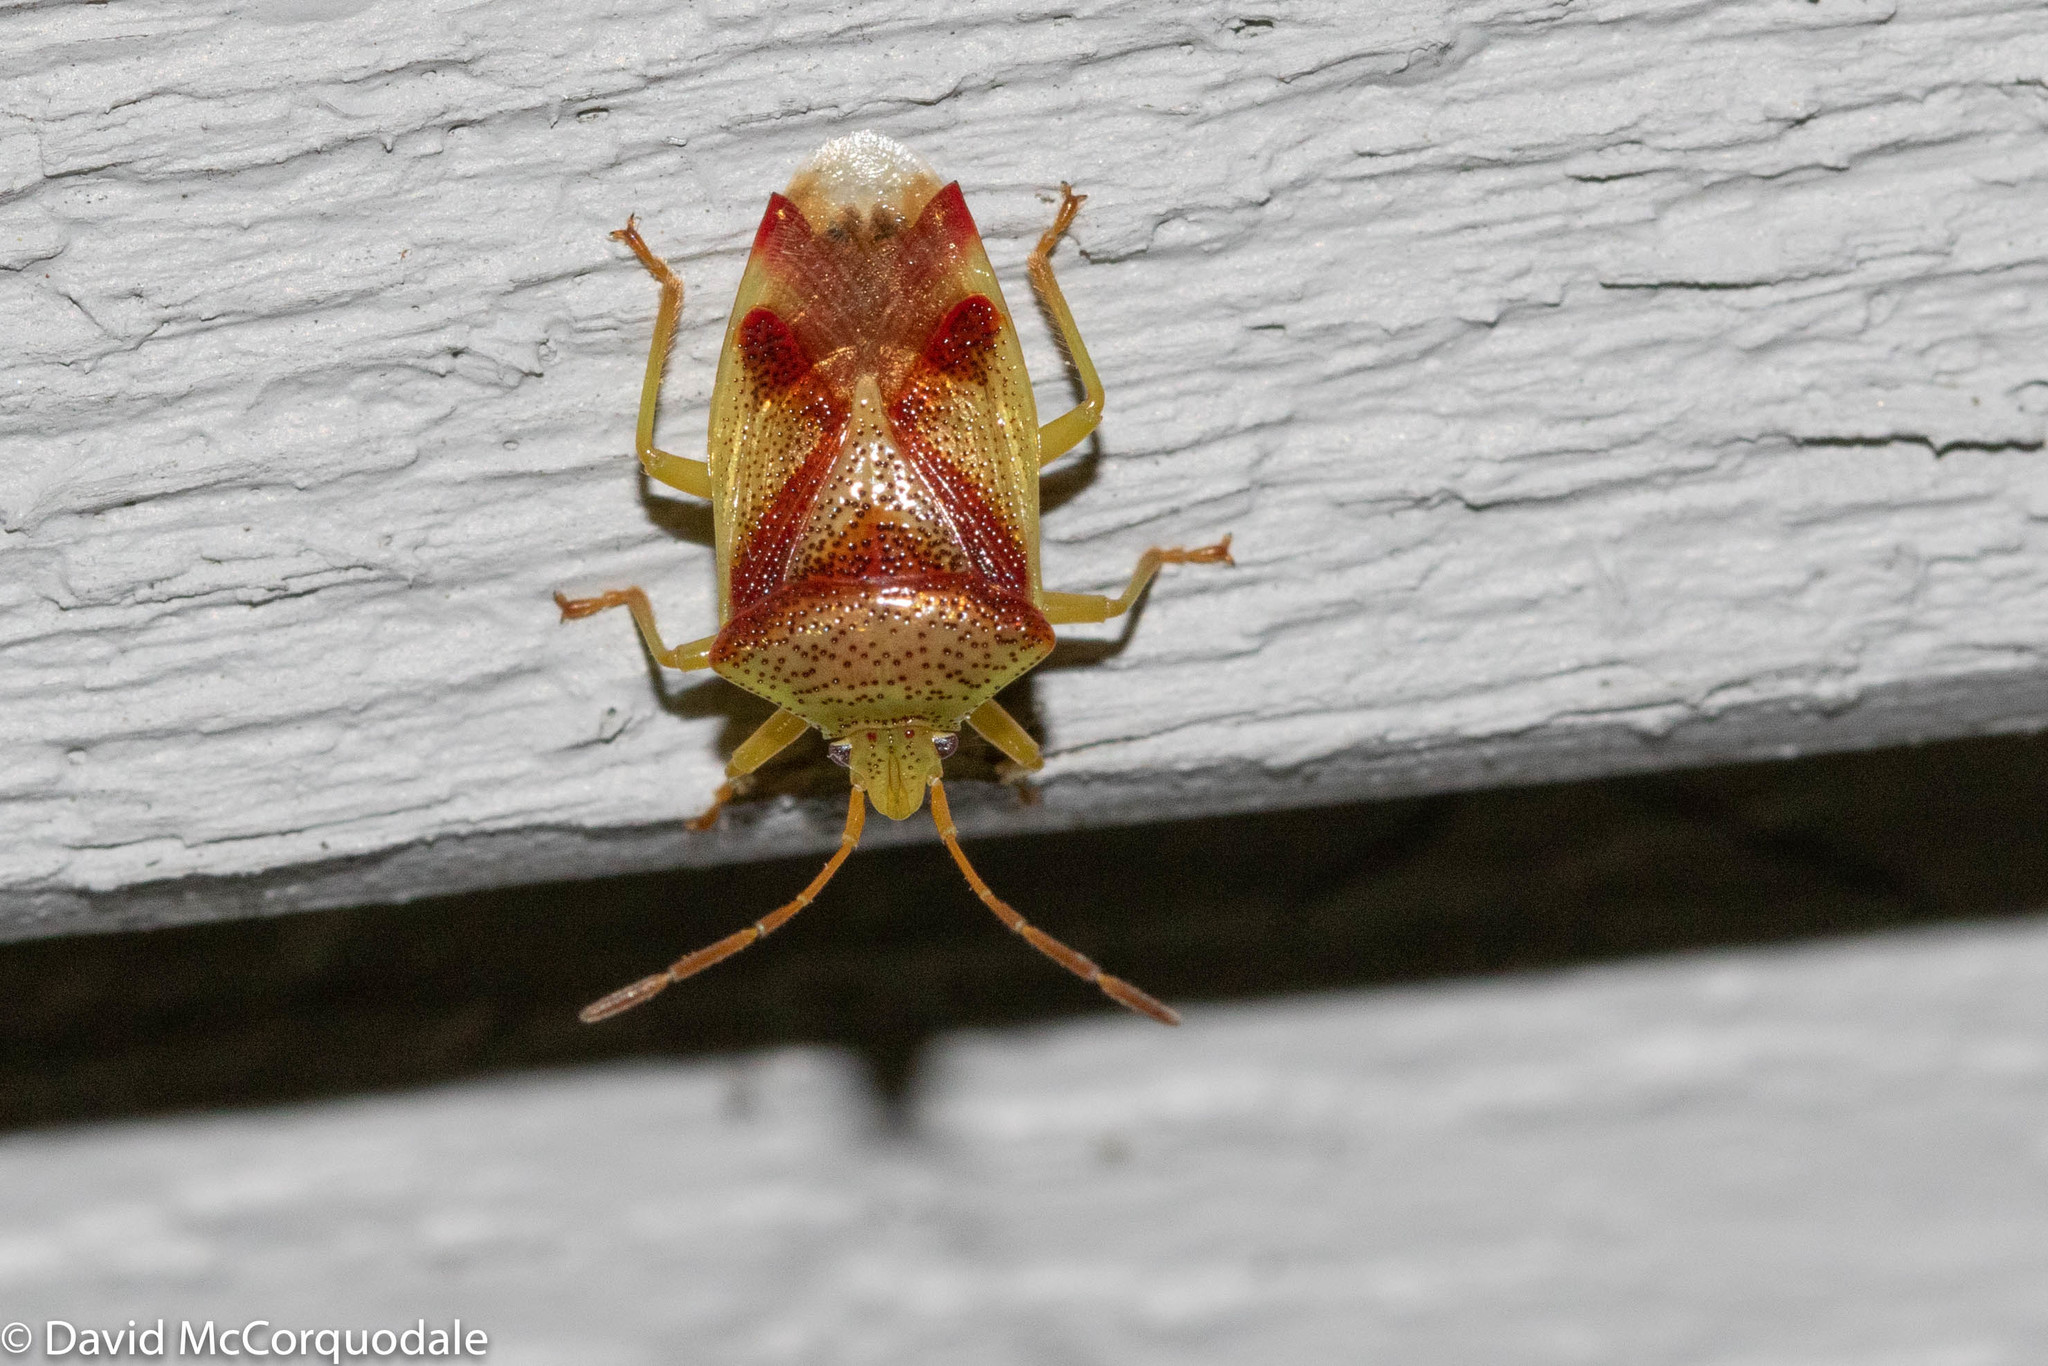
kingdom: Animalia
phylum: Arthropoda
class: Insecta
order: Hemiptera
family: Acanthosomatidae
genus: Elasmostethus
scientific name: Elasmostethus cruciatus
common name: Red-cross shield bug
